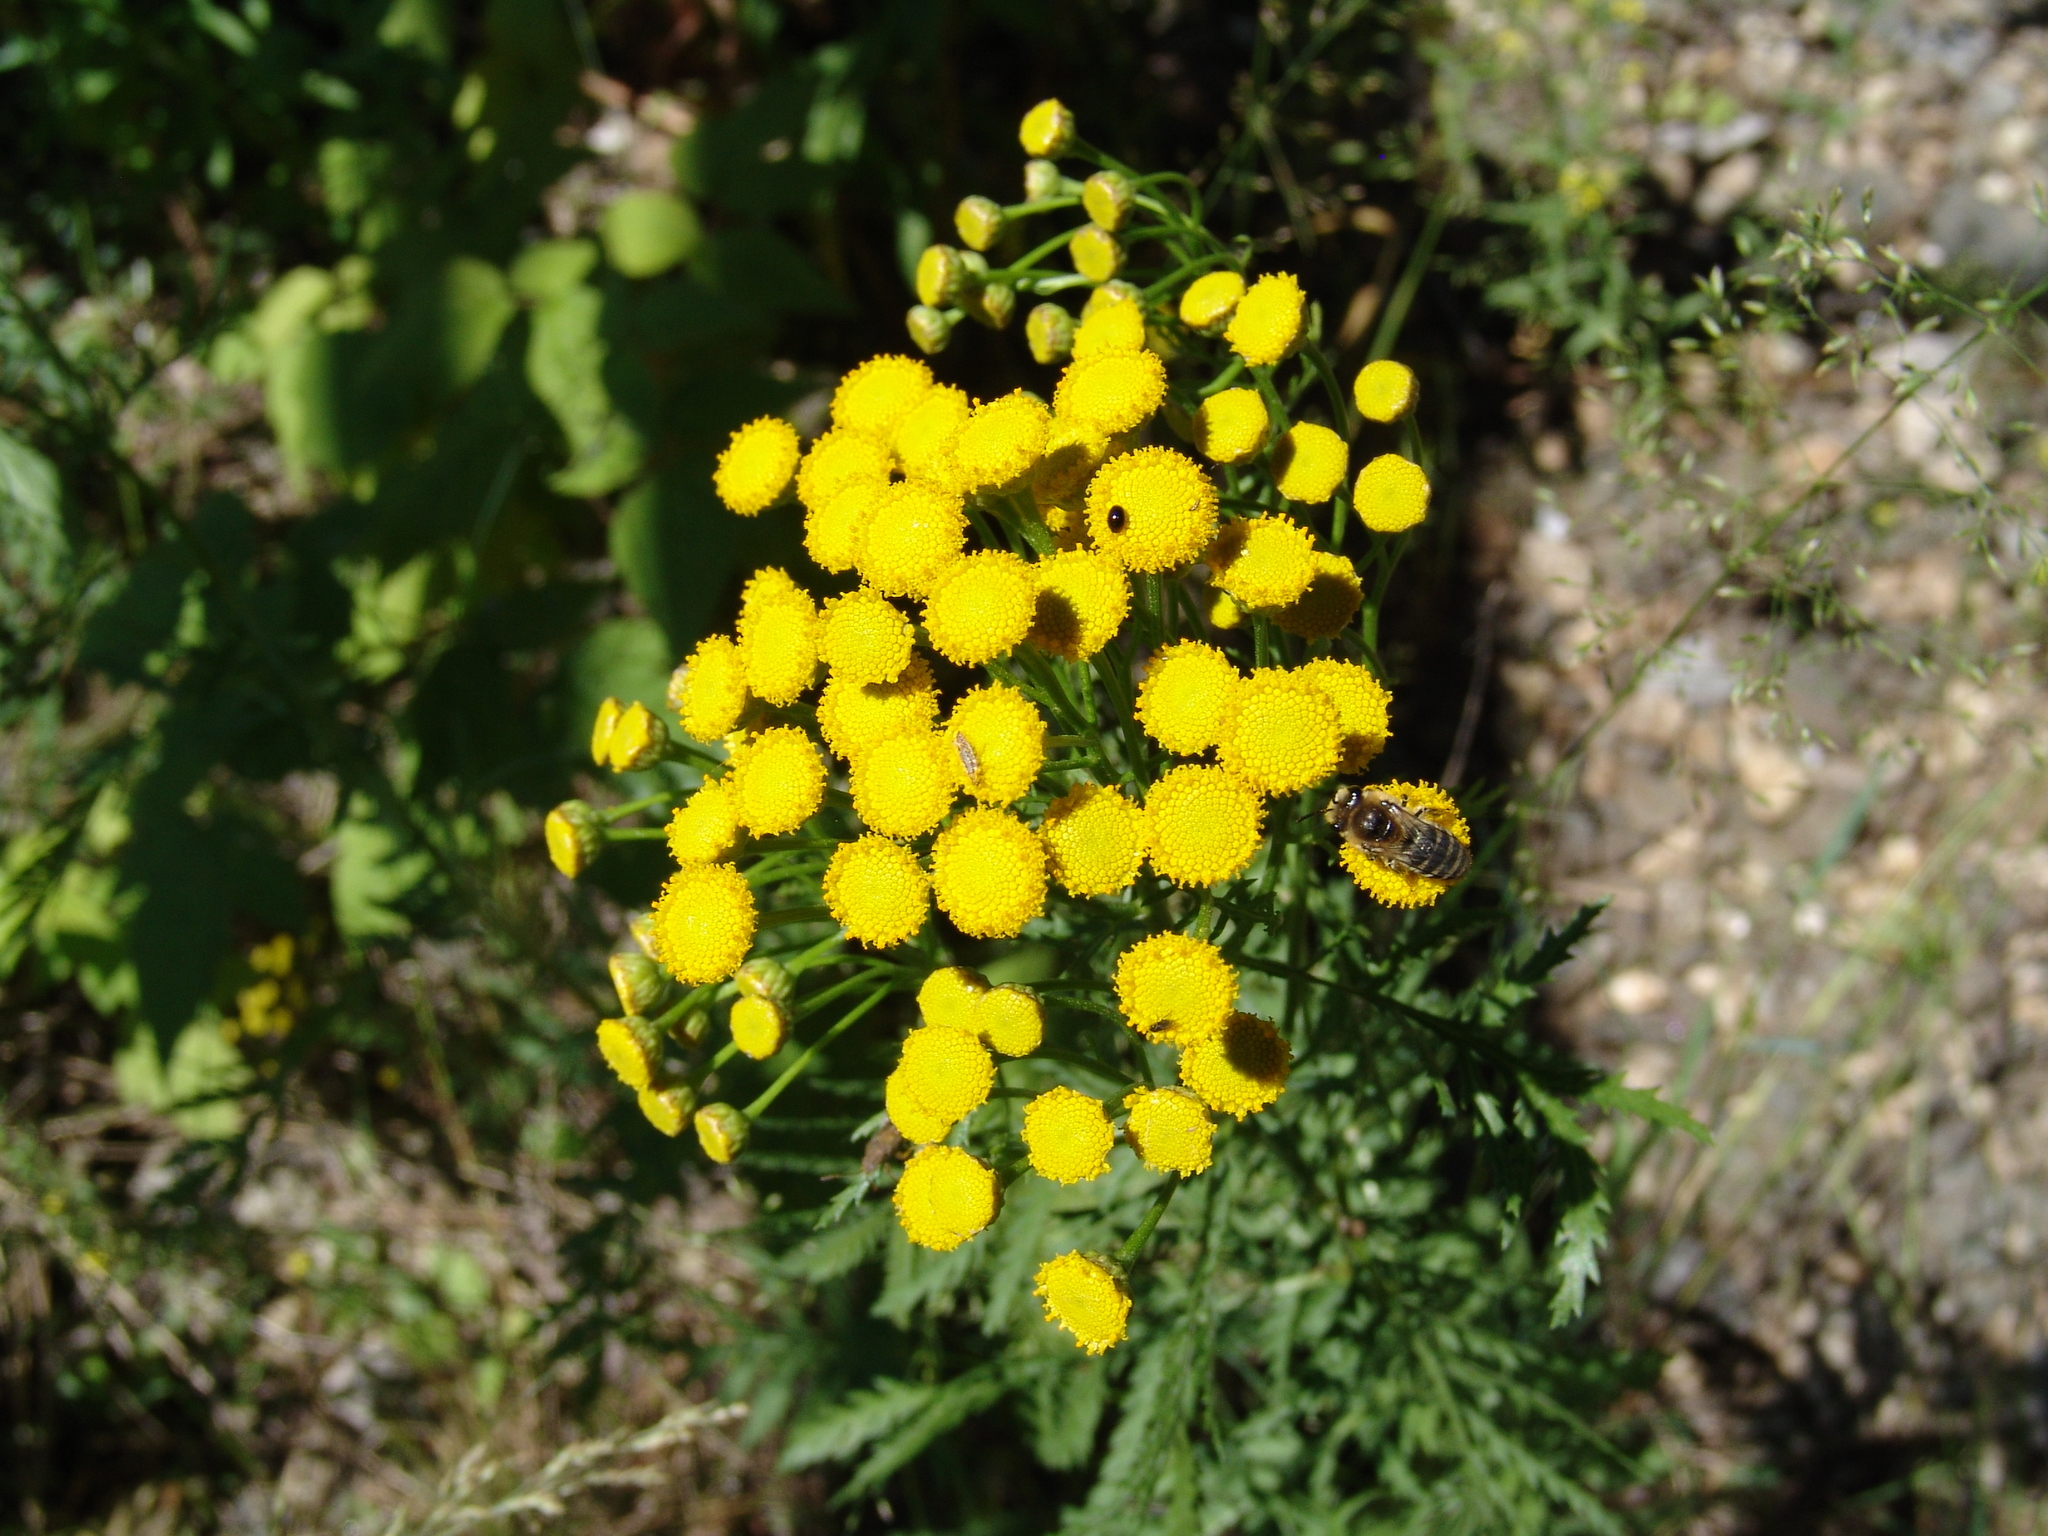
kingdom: Plantae
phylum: Tracheophyta
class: Magnoliopsida
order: Asterales
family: Asteraceae
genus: Tanacetum
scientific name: Tanacetum vulgare
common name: Common tansy
